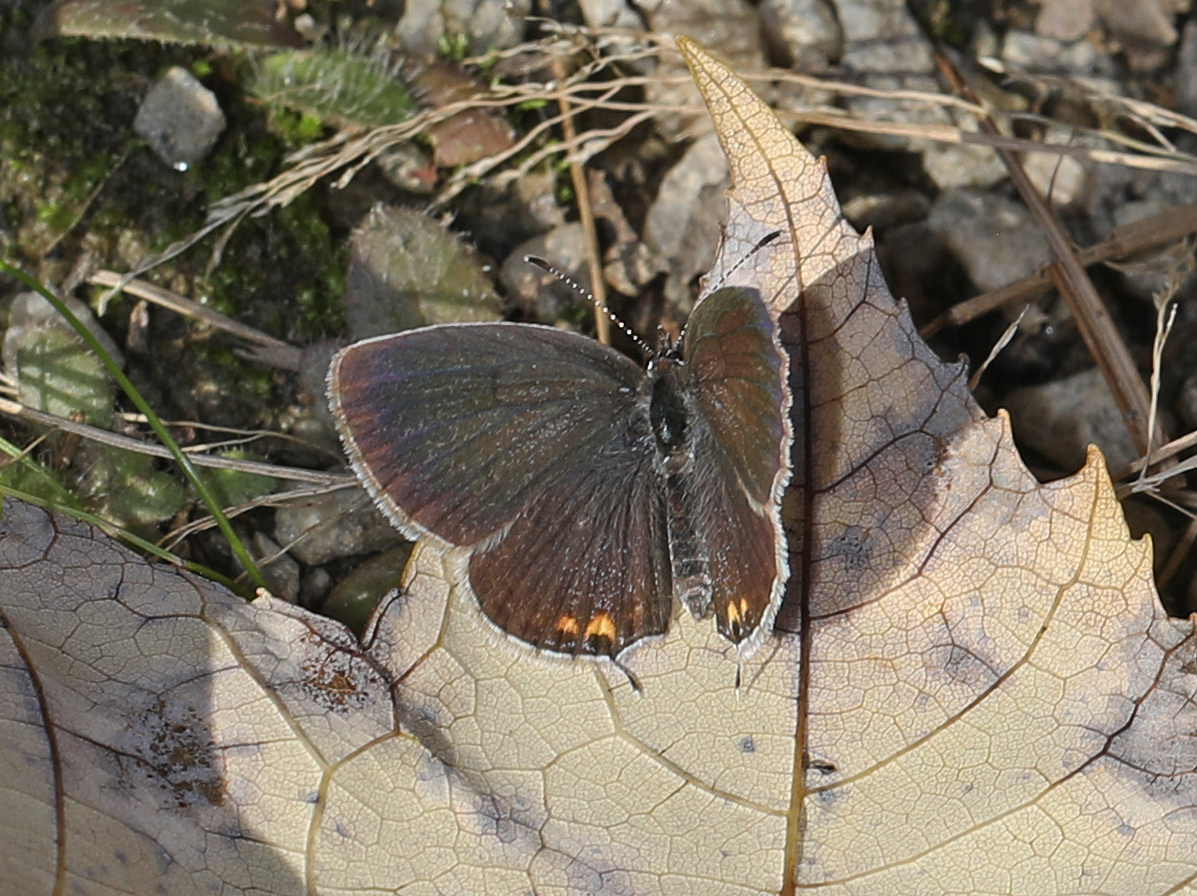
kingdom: Animalia
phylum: Arthropoda
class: Insecta
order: Lepidoptera
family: Lycaenidae
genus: Elkalyce
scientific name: Elkalyce comyntas
